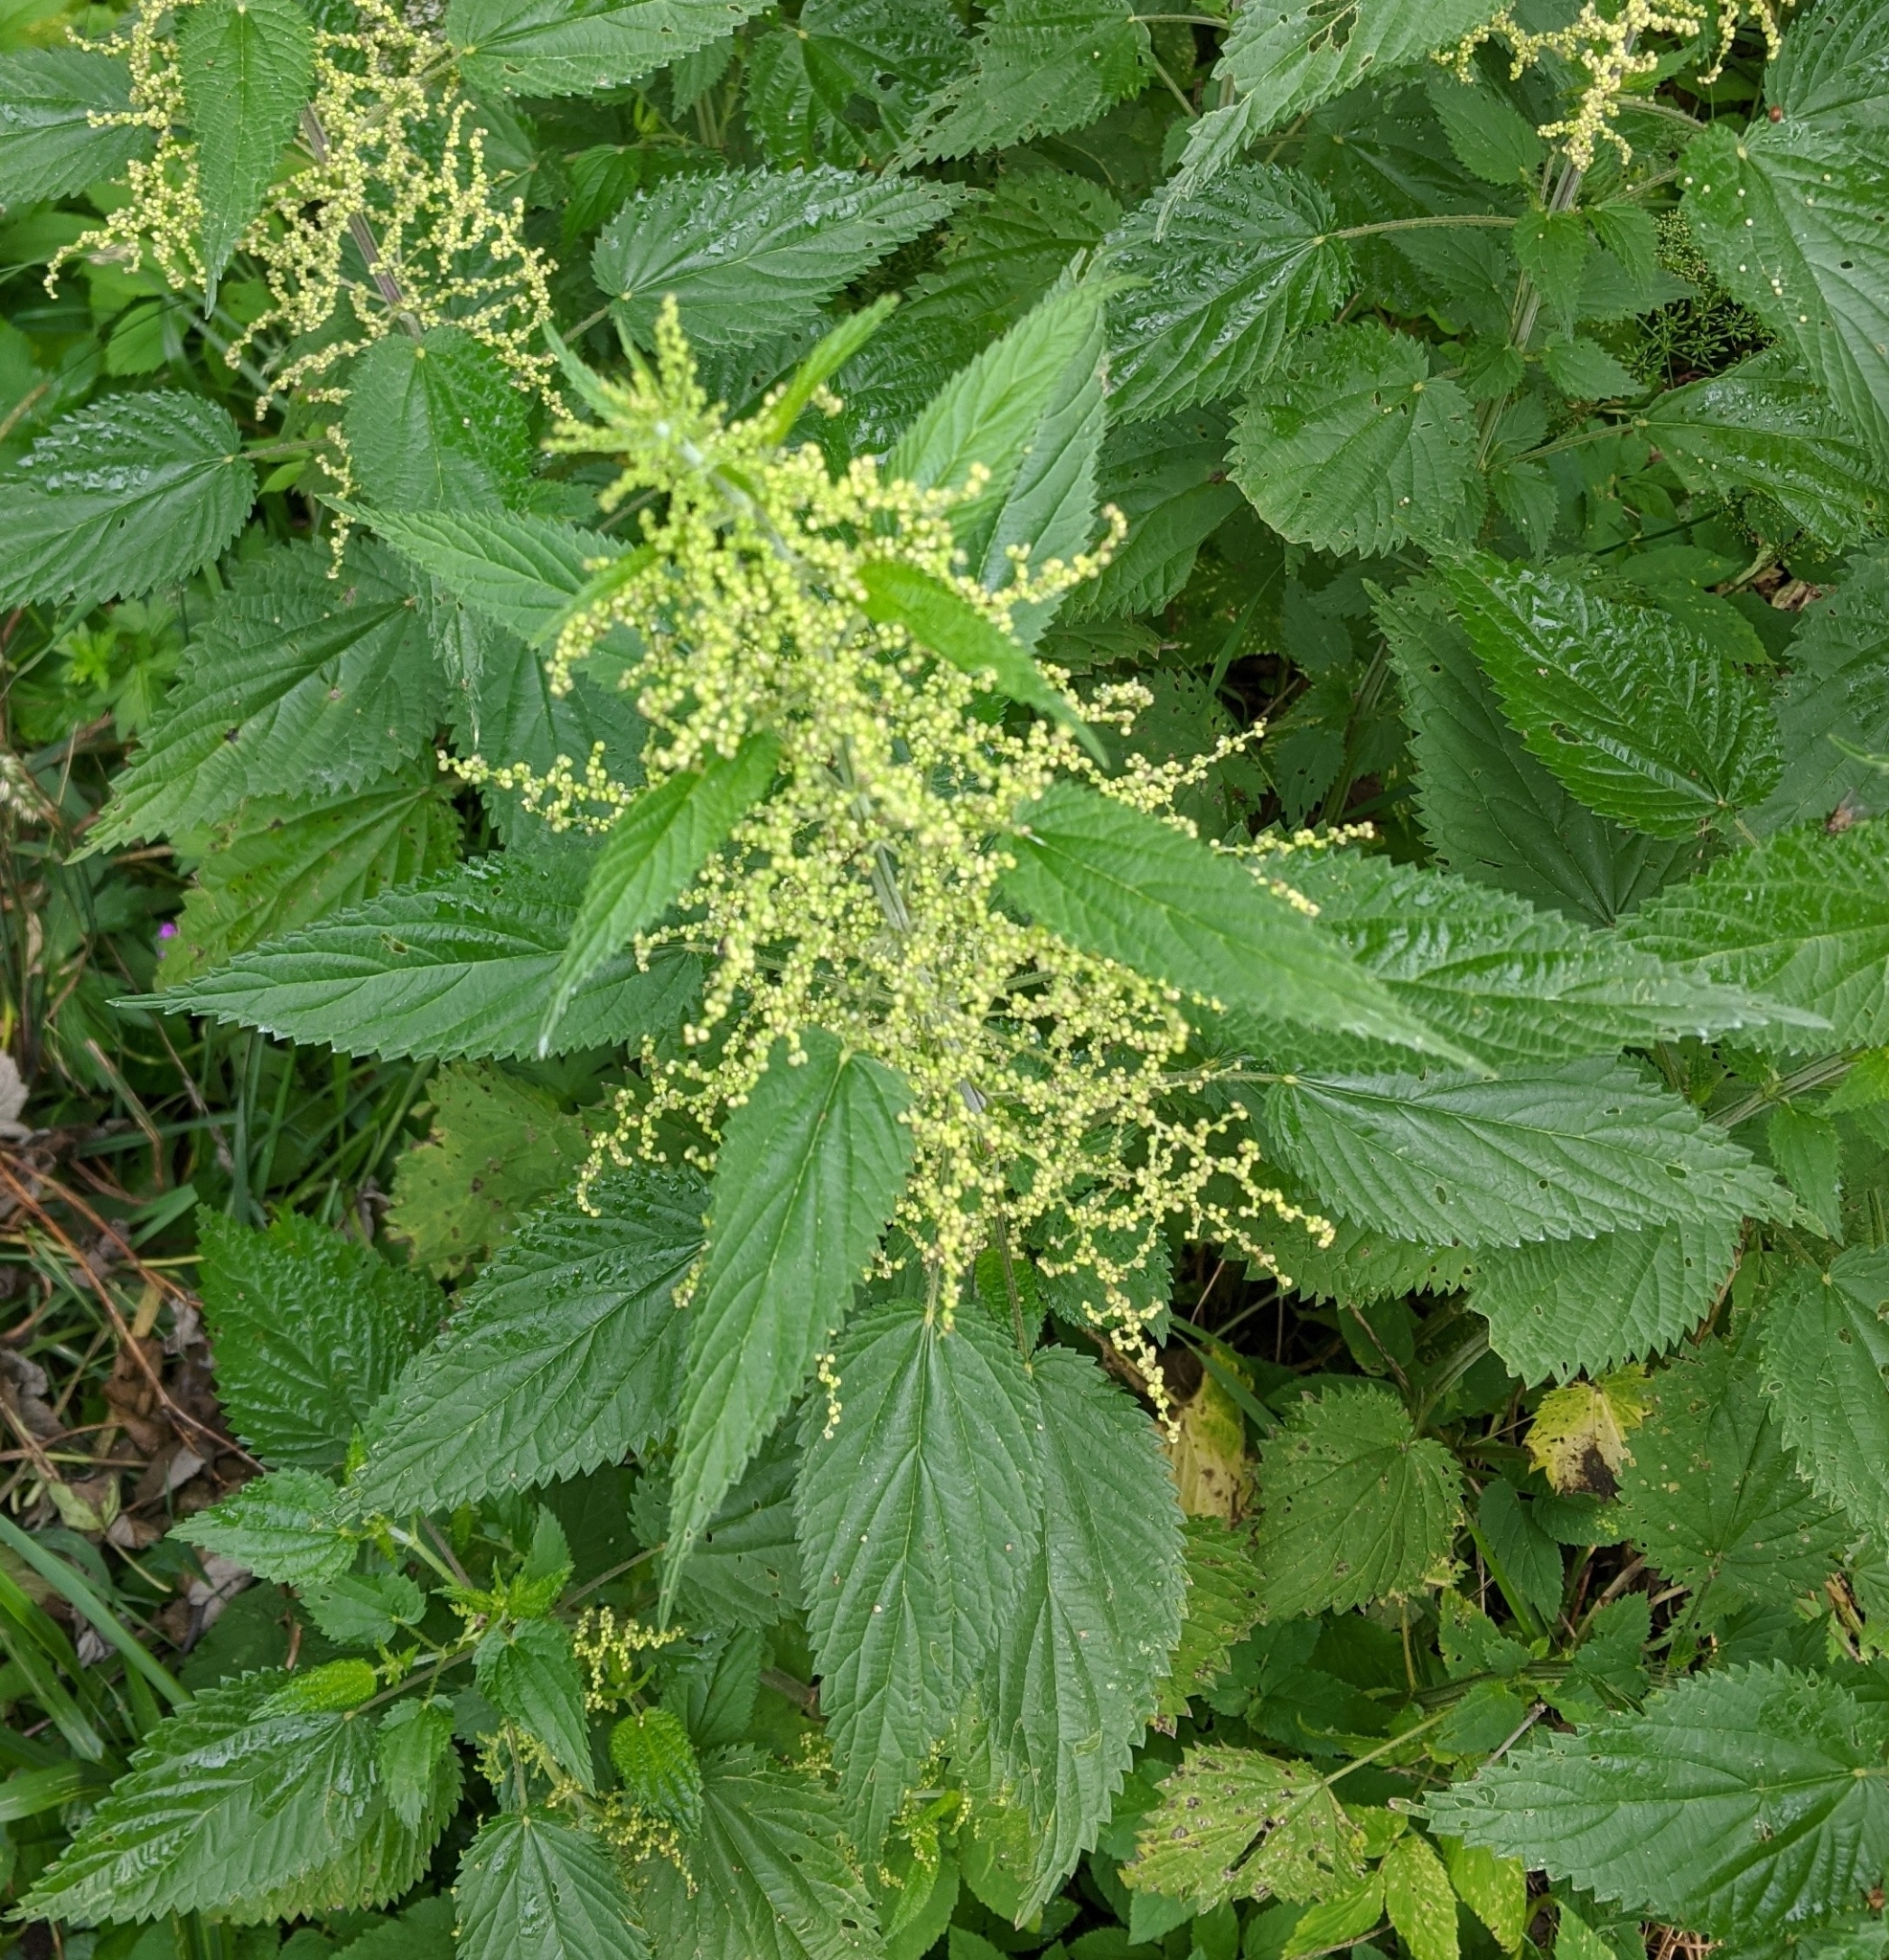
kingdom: Plantae
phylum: Tracheophyta
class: Magnoliopsida
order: Rosales
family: Urticaceae
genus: Urtica
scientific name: Urtica dioica
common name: Common nettle
